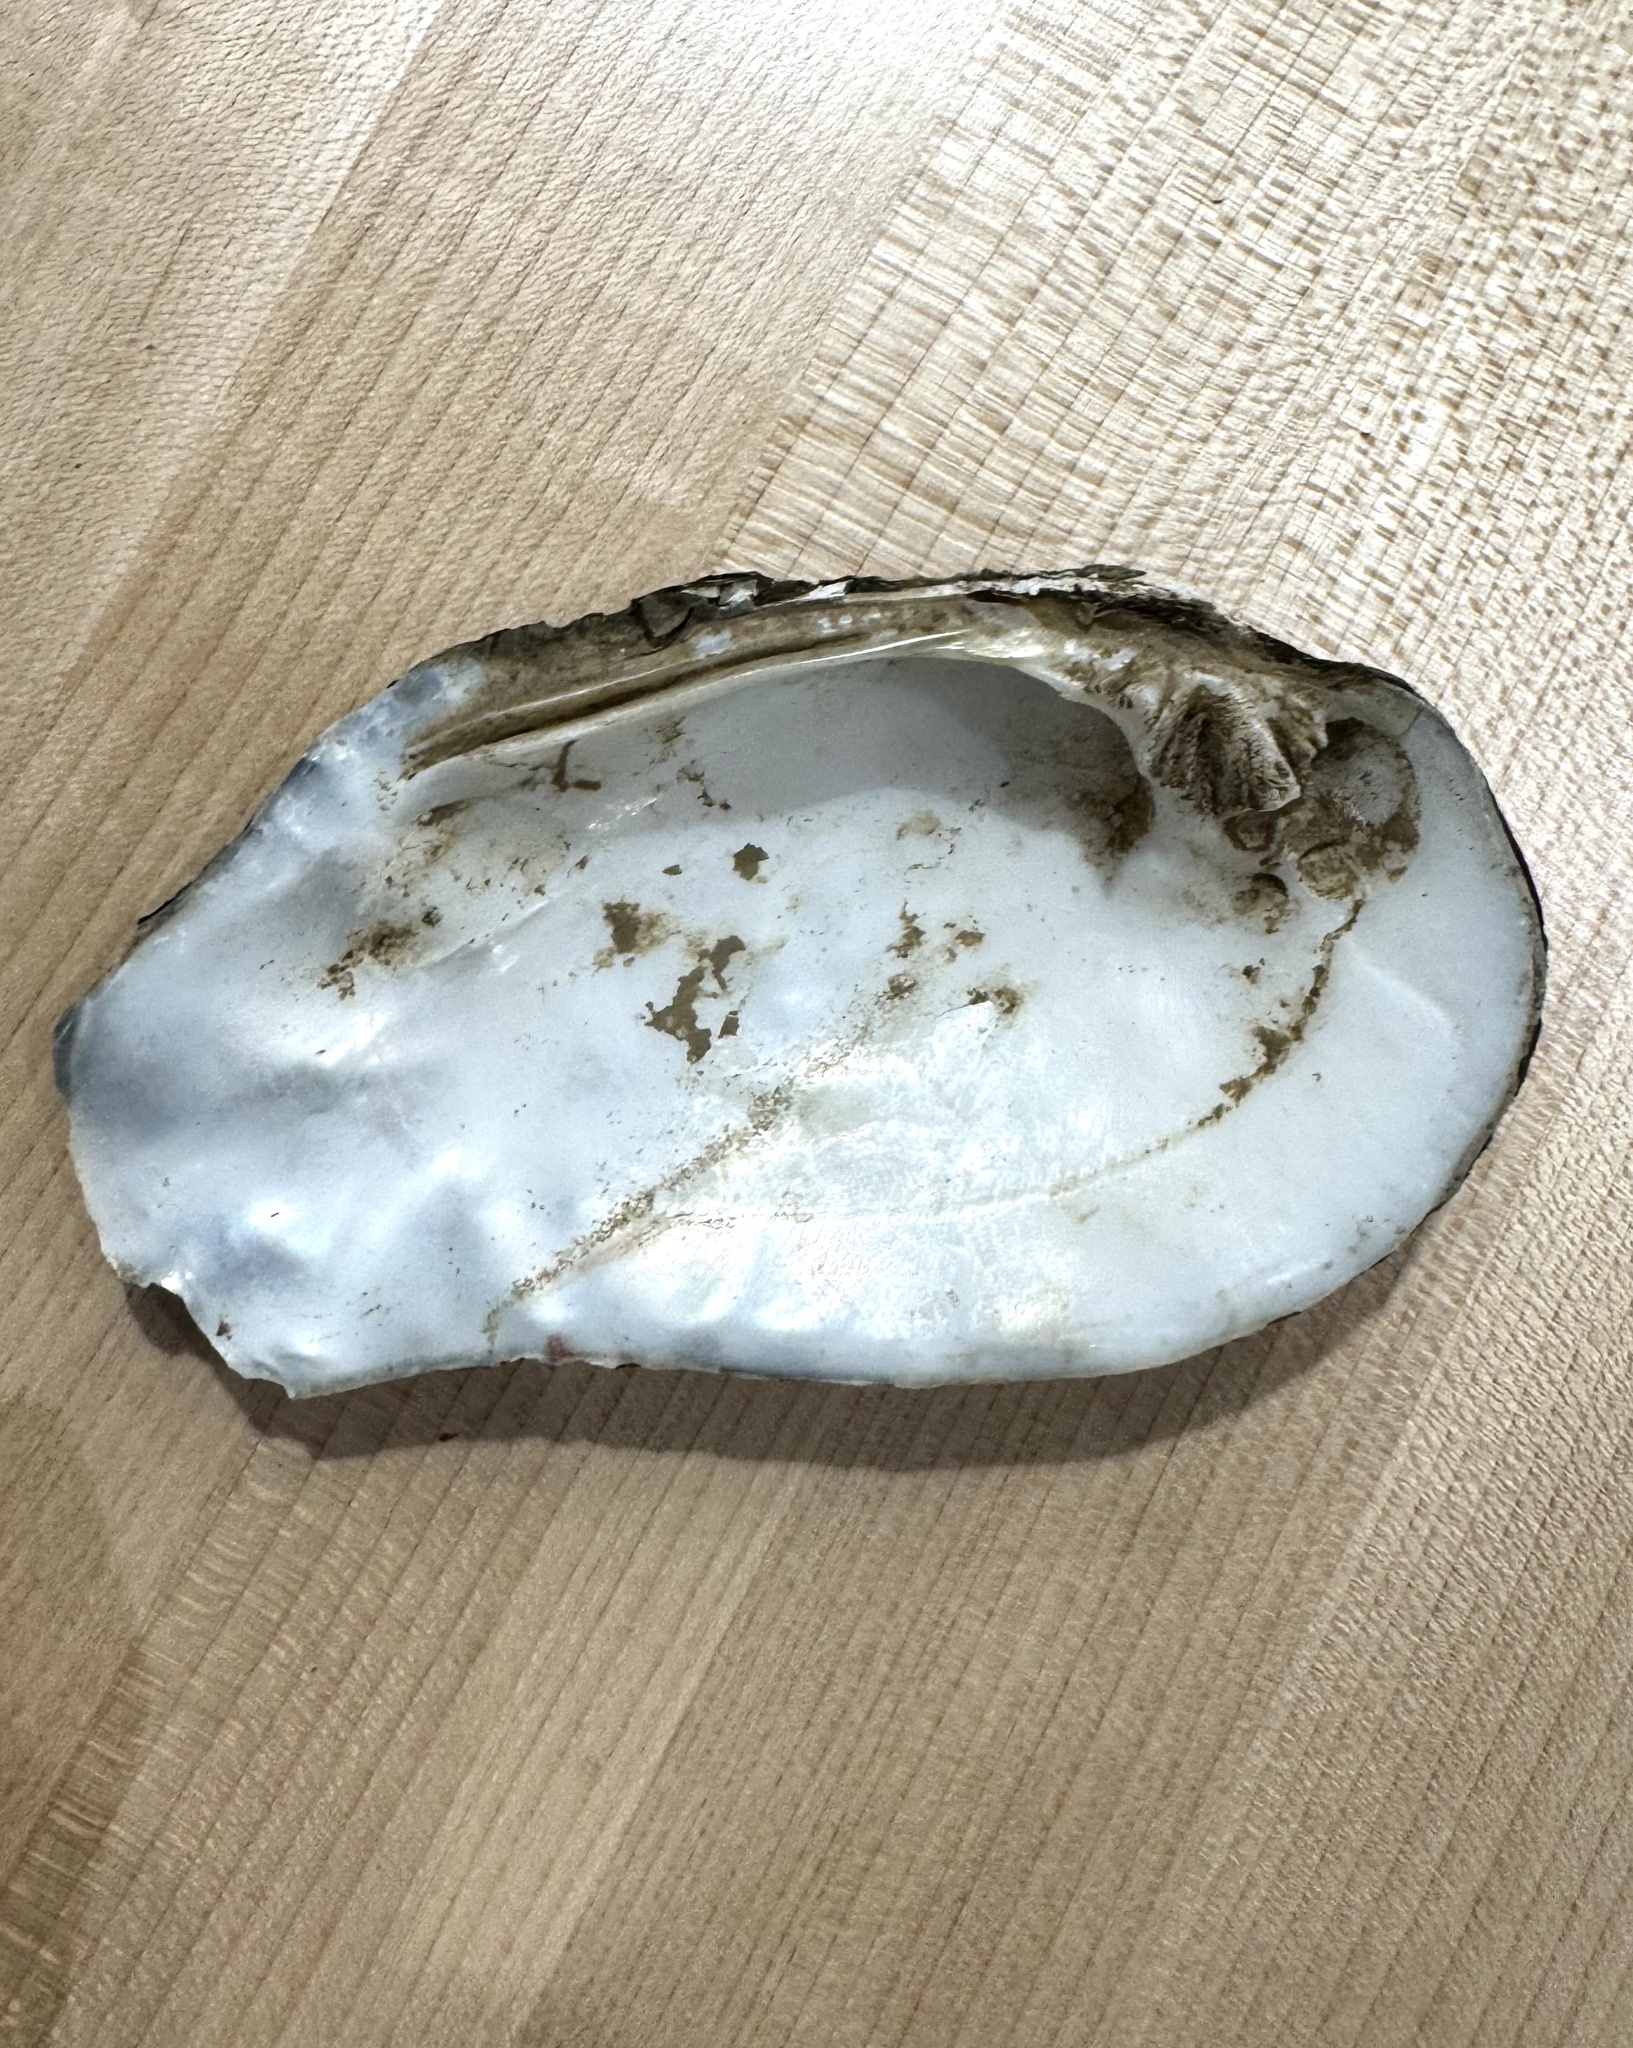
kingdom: Animalia
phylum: Mollusca
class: Bivalvia
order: Unionida
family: Unionidae
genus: Tritogonia
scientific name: Tritogonia verrucosa
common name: Pistolgrip
